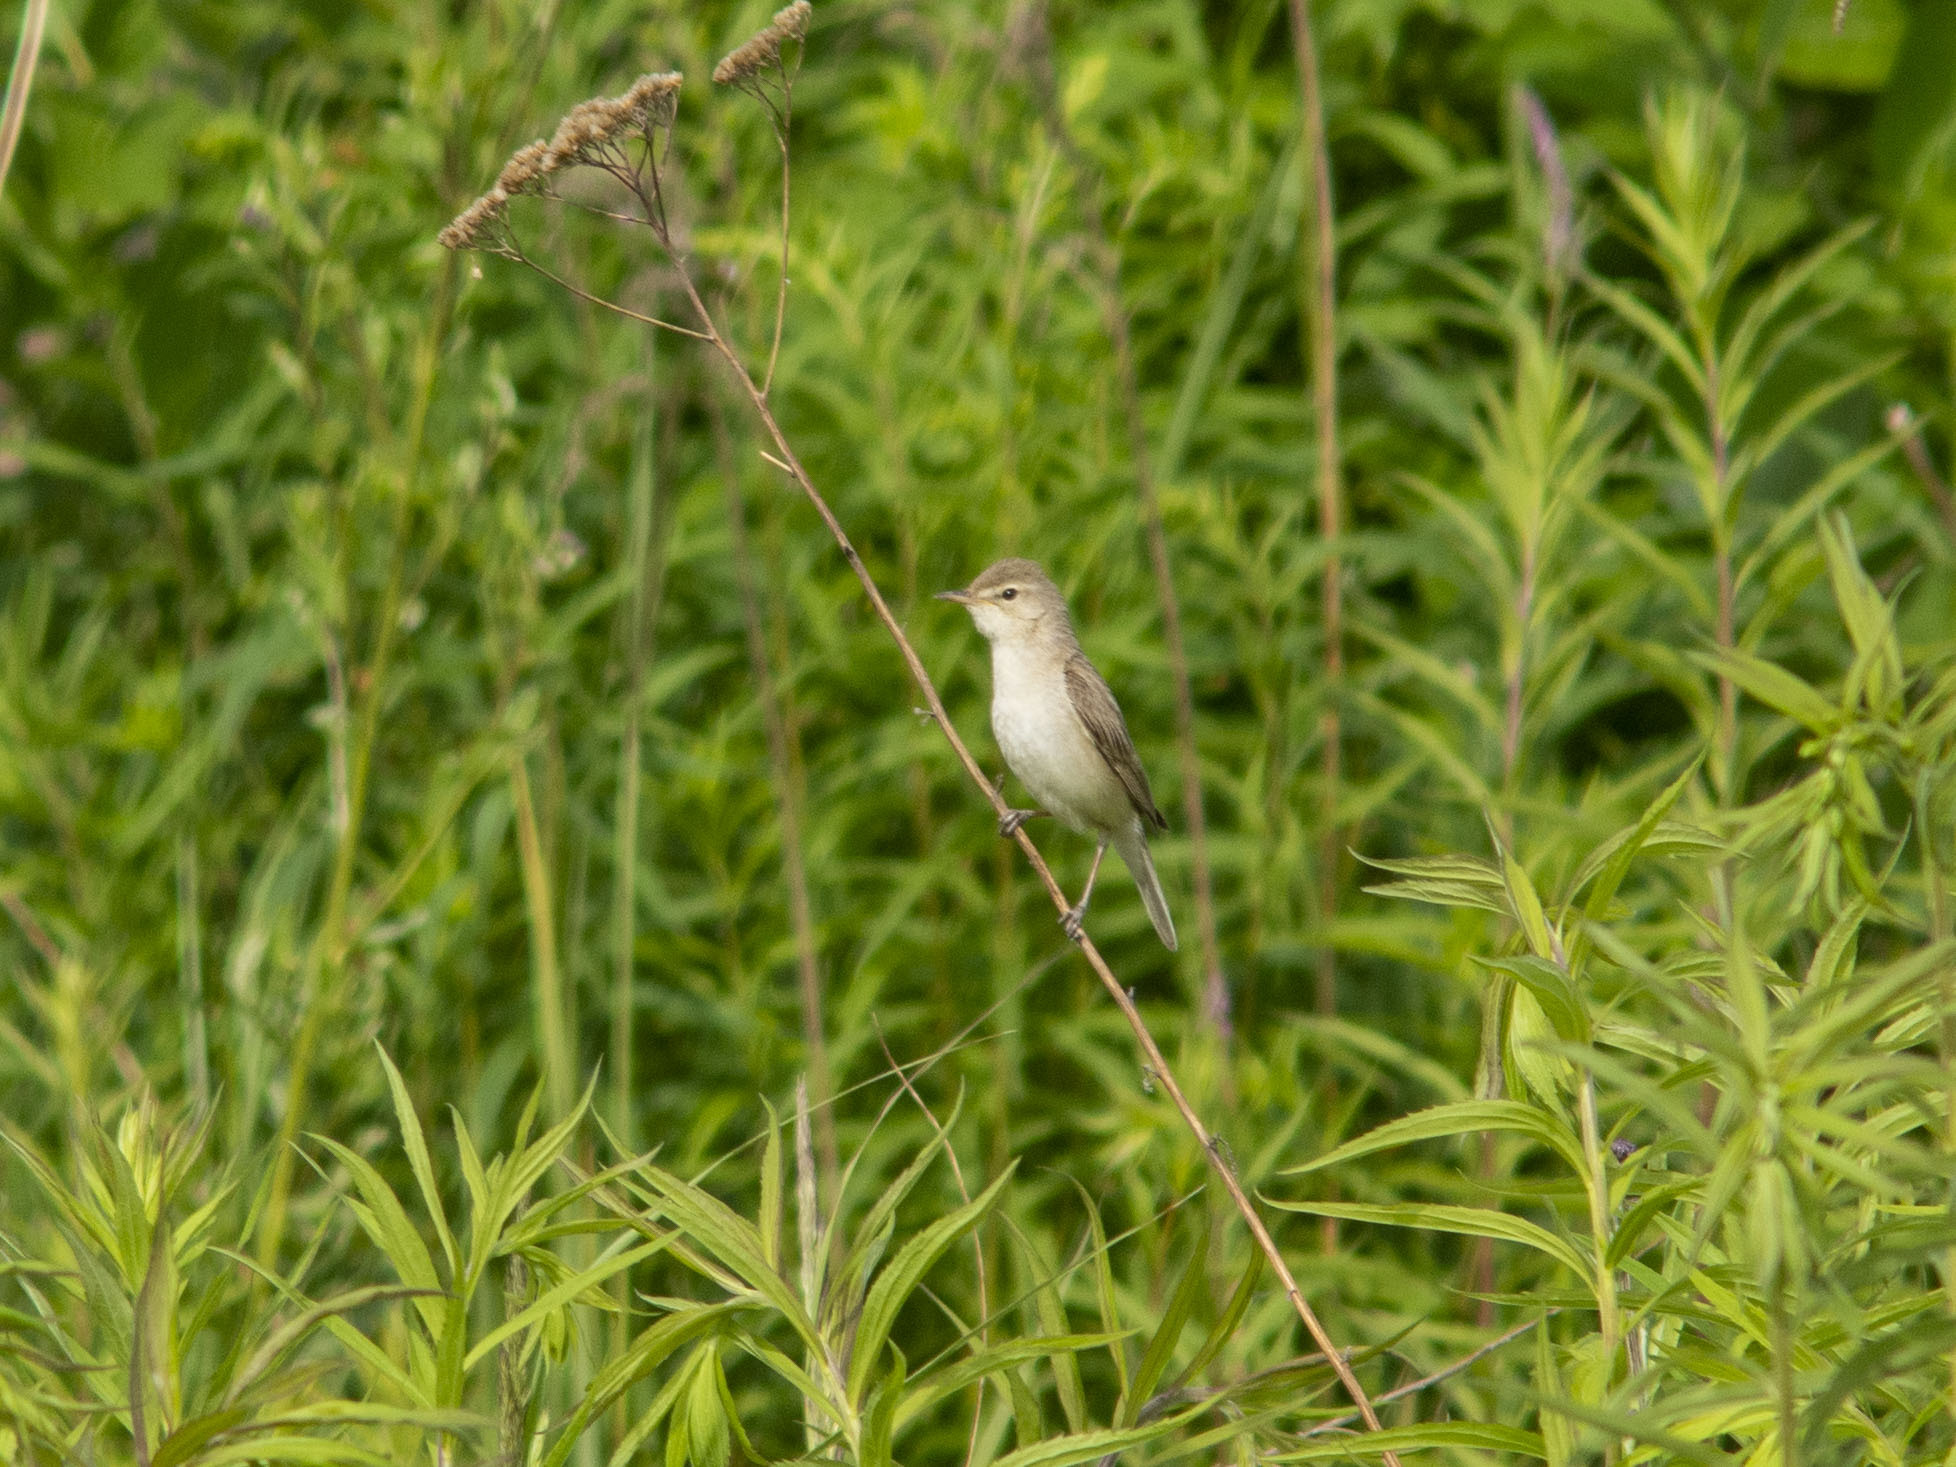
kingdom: Animalia
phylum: Chordata
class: Aves
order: Passeriformes
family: Acrocephalidae
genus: Iduna
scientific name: Iduna caligata
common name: Booted warbler
